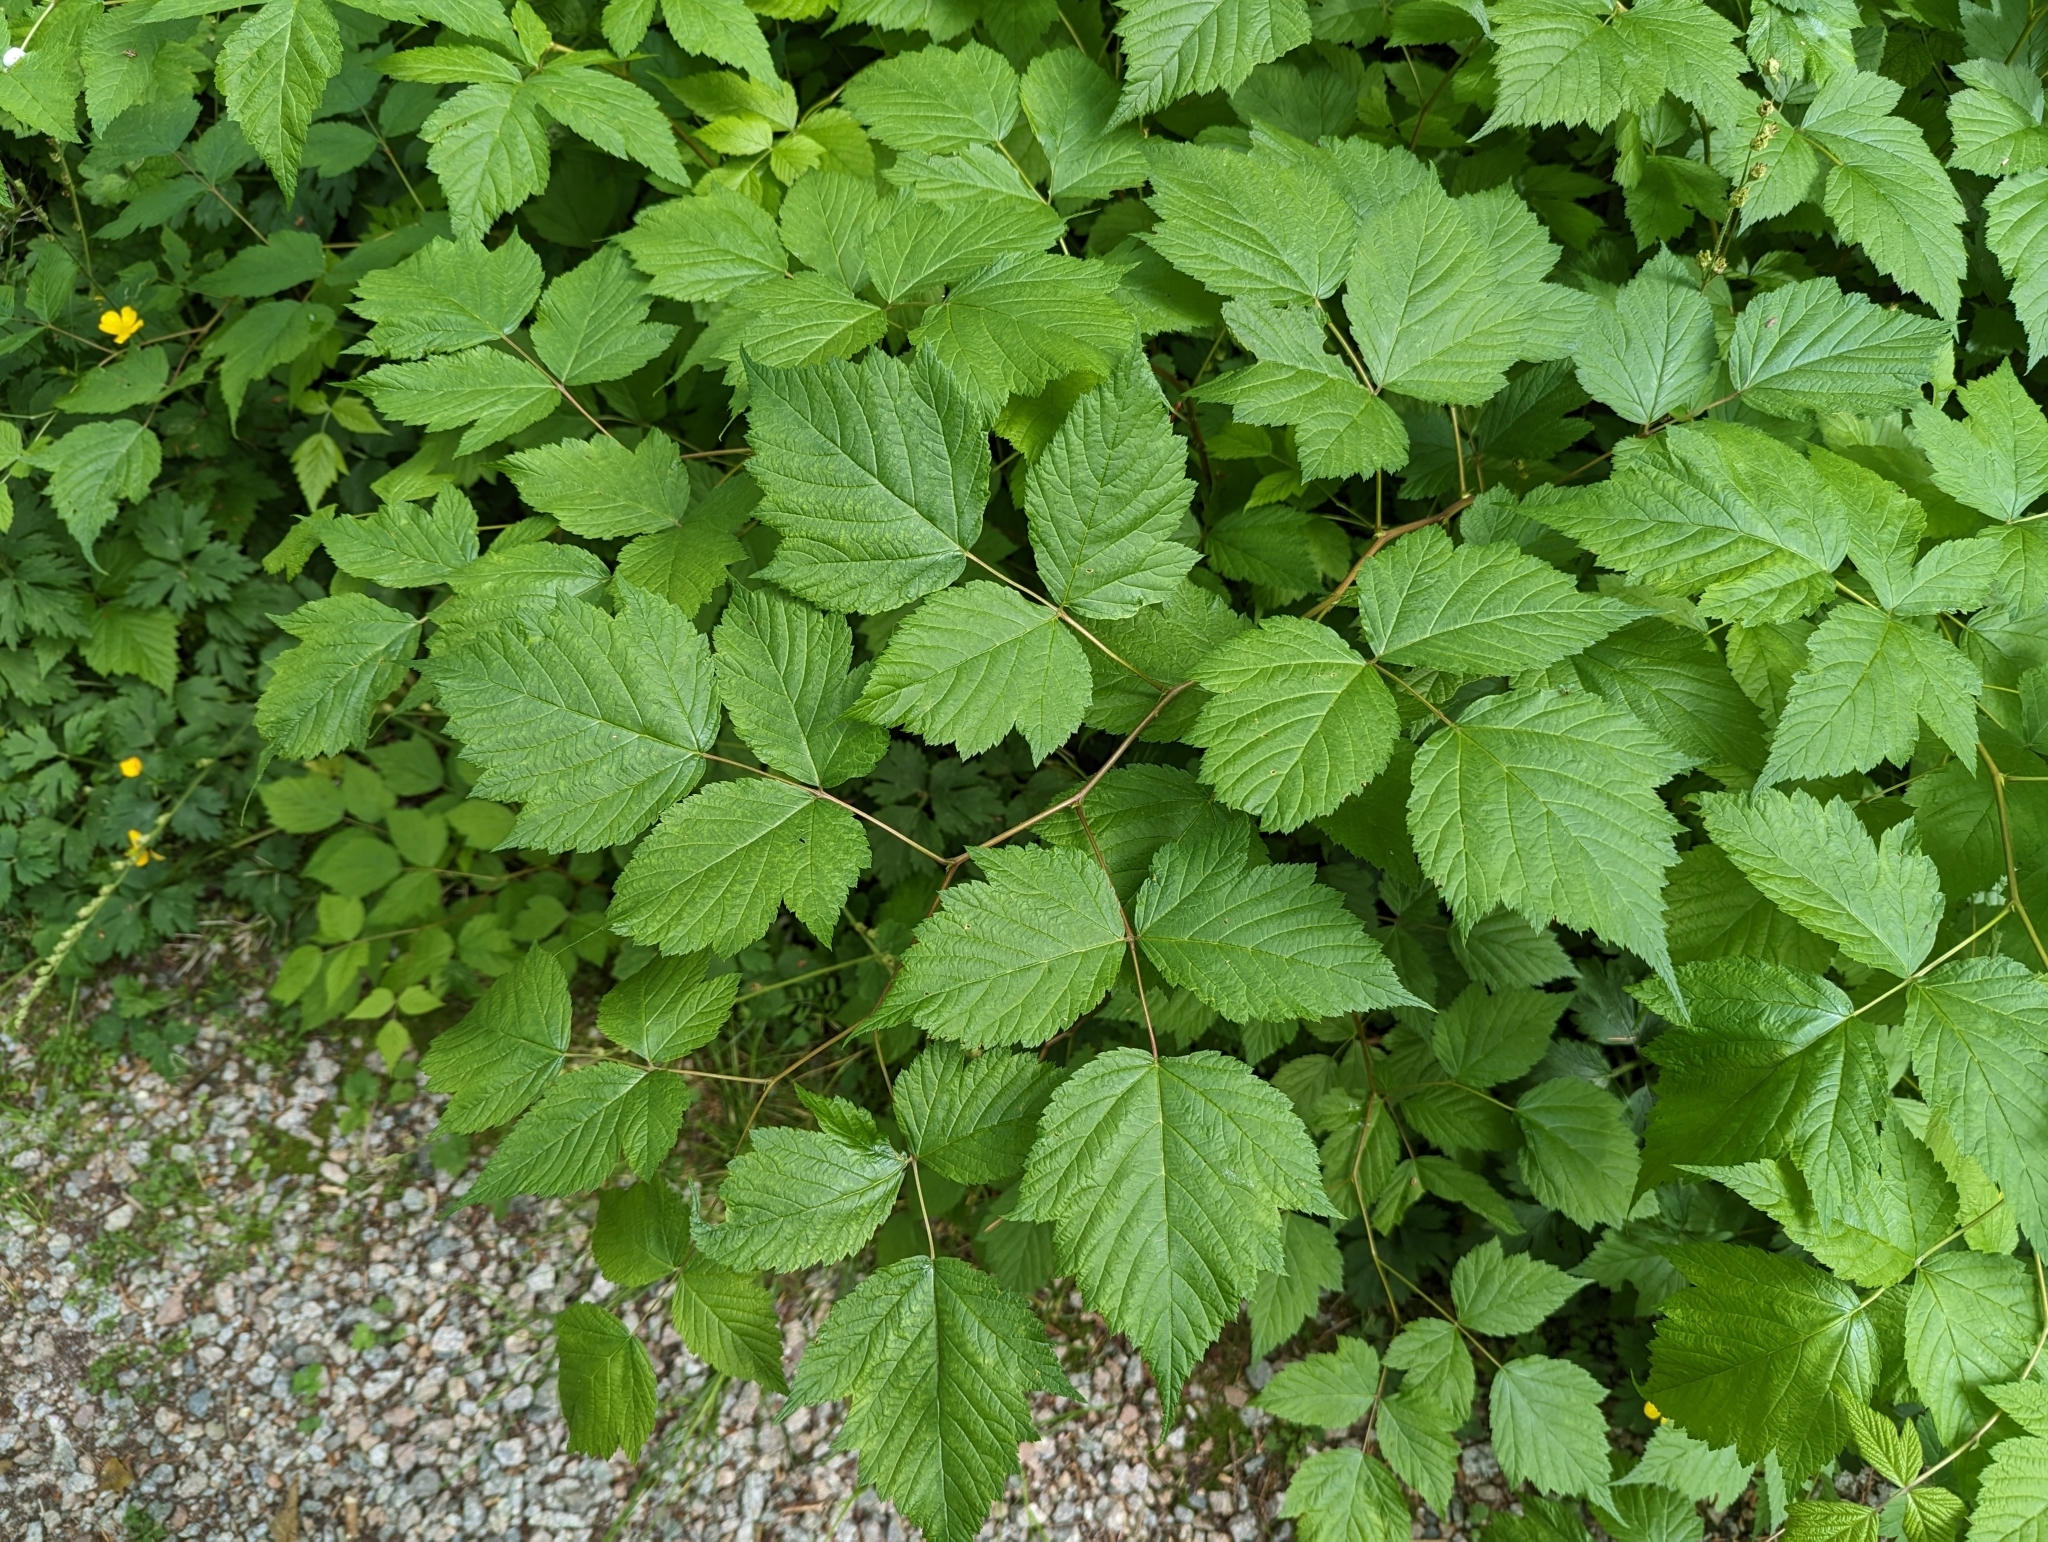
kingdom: Plantae
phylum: Tracheophyta
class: Magnoliopsida
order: Rosales
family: Rosaceae
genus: Rubus
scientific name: Rubus spectabilis
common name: Salmonberry
